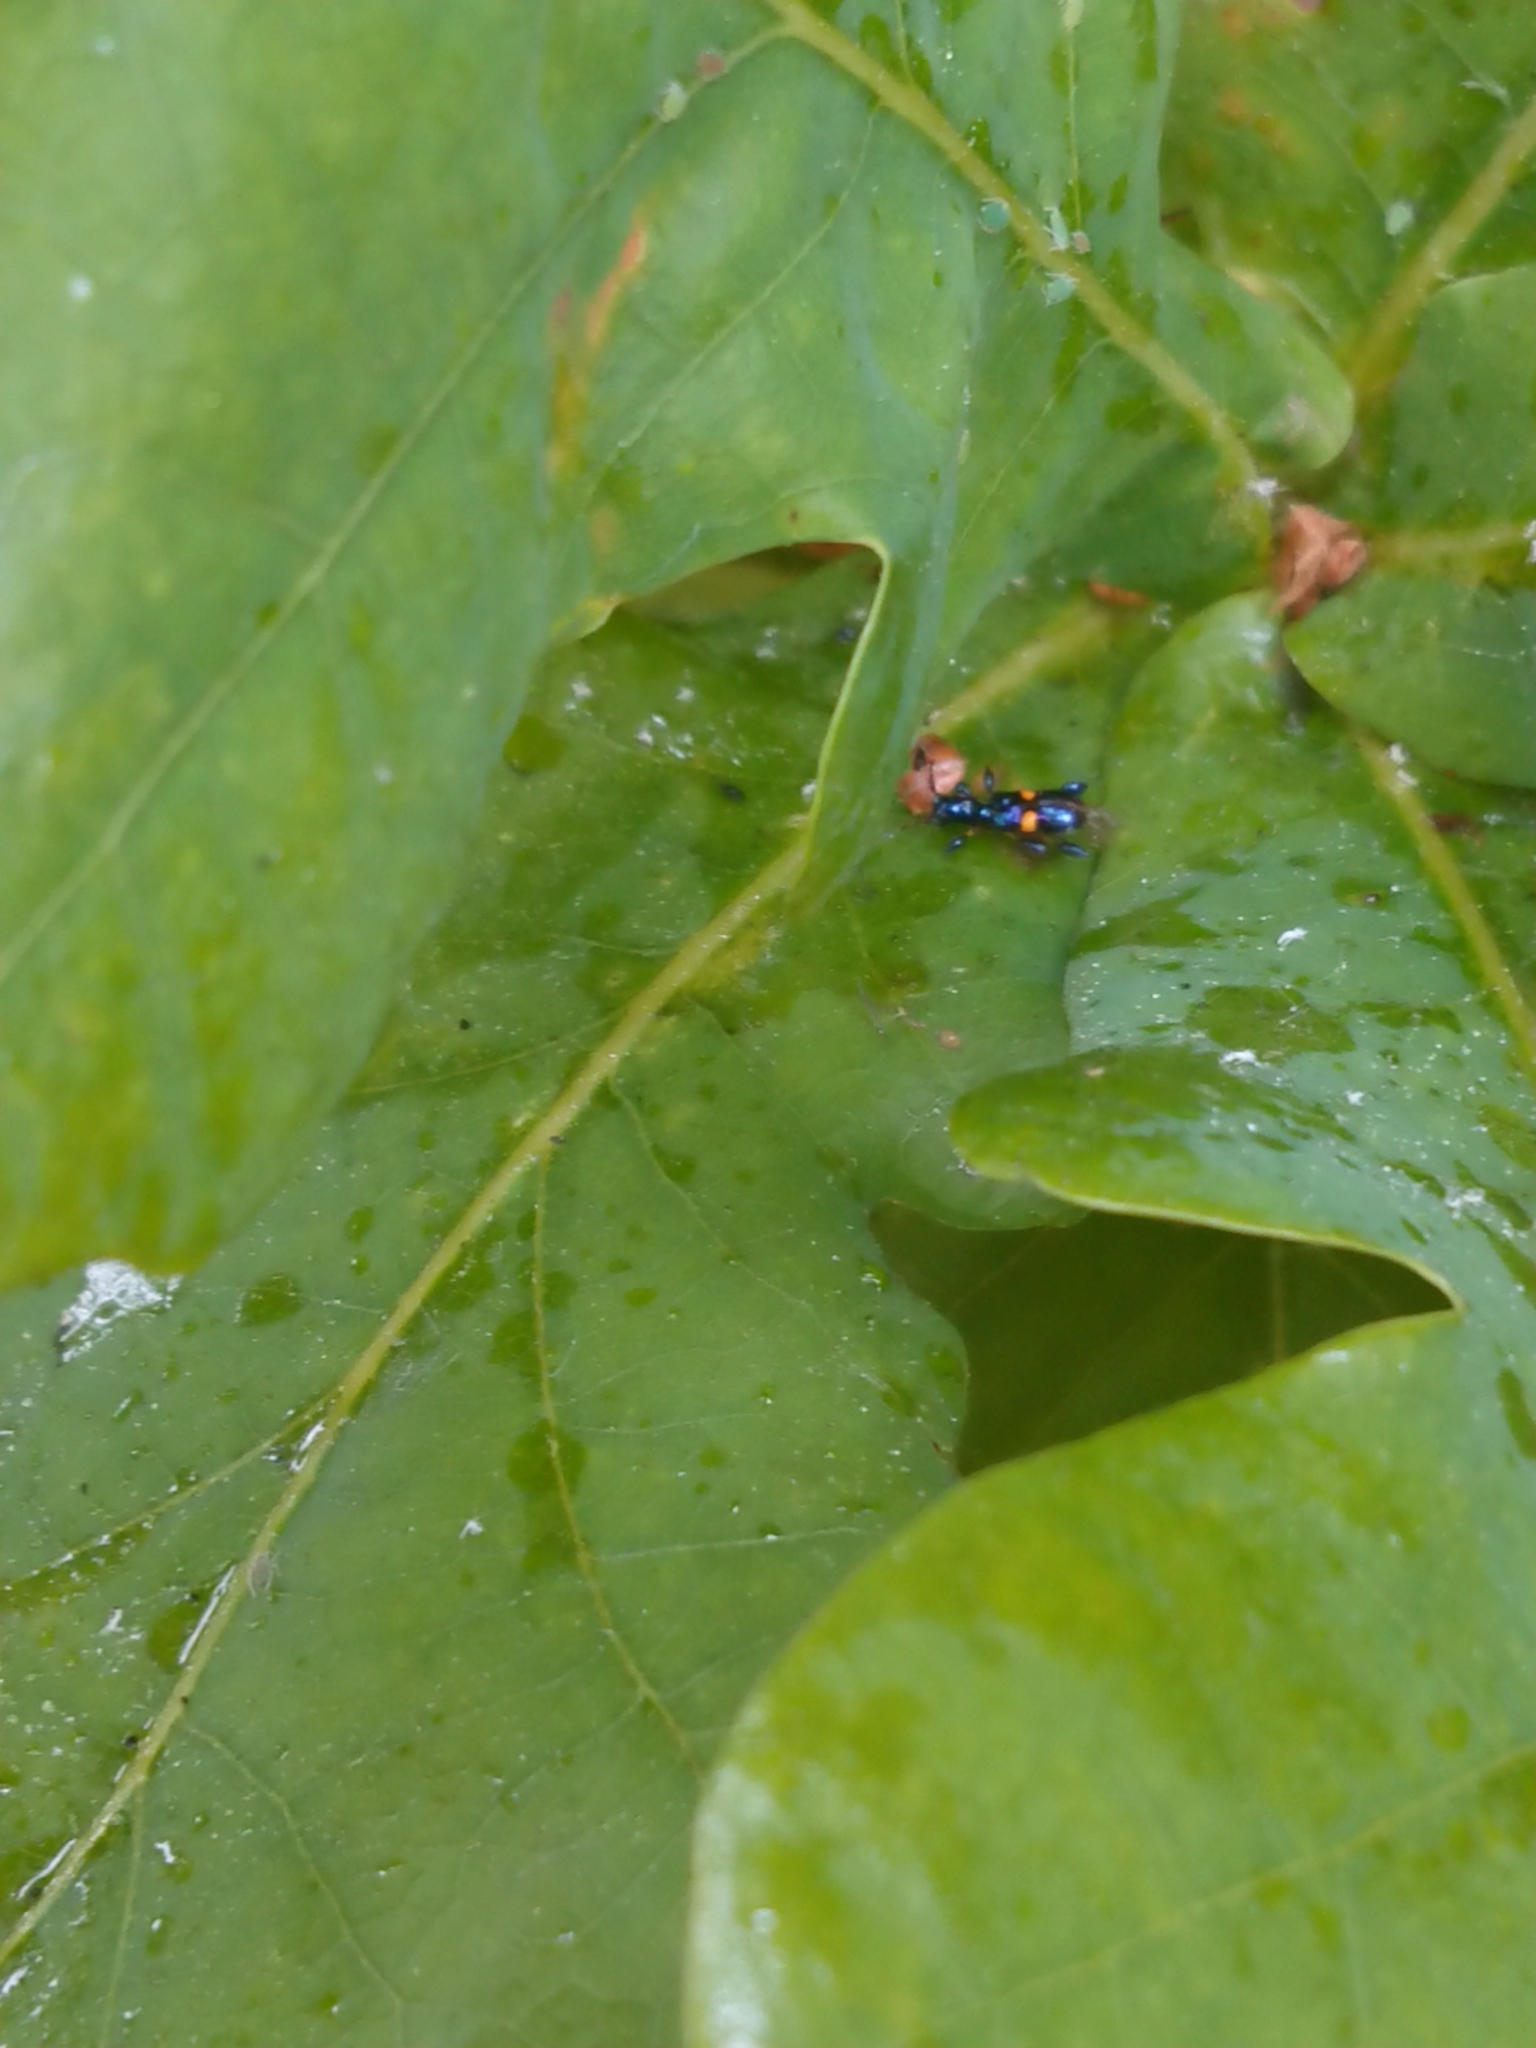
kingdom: Animalia
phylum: Arthropoda
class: Insecta
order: Coleoptera
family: Cerambycidae
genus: Zorion
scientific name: Zorion guttigerum
